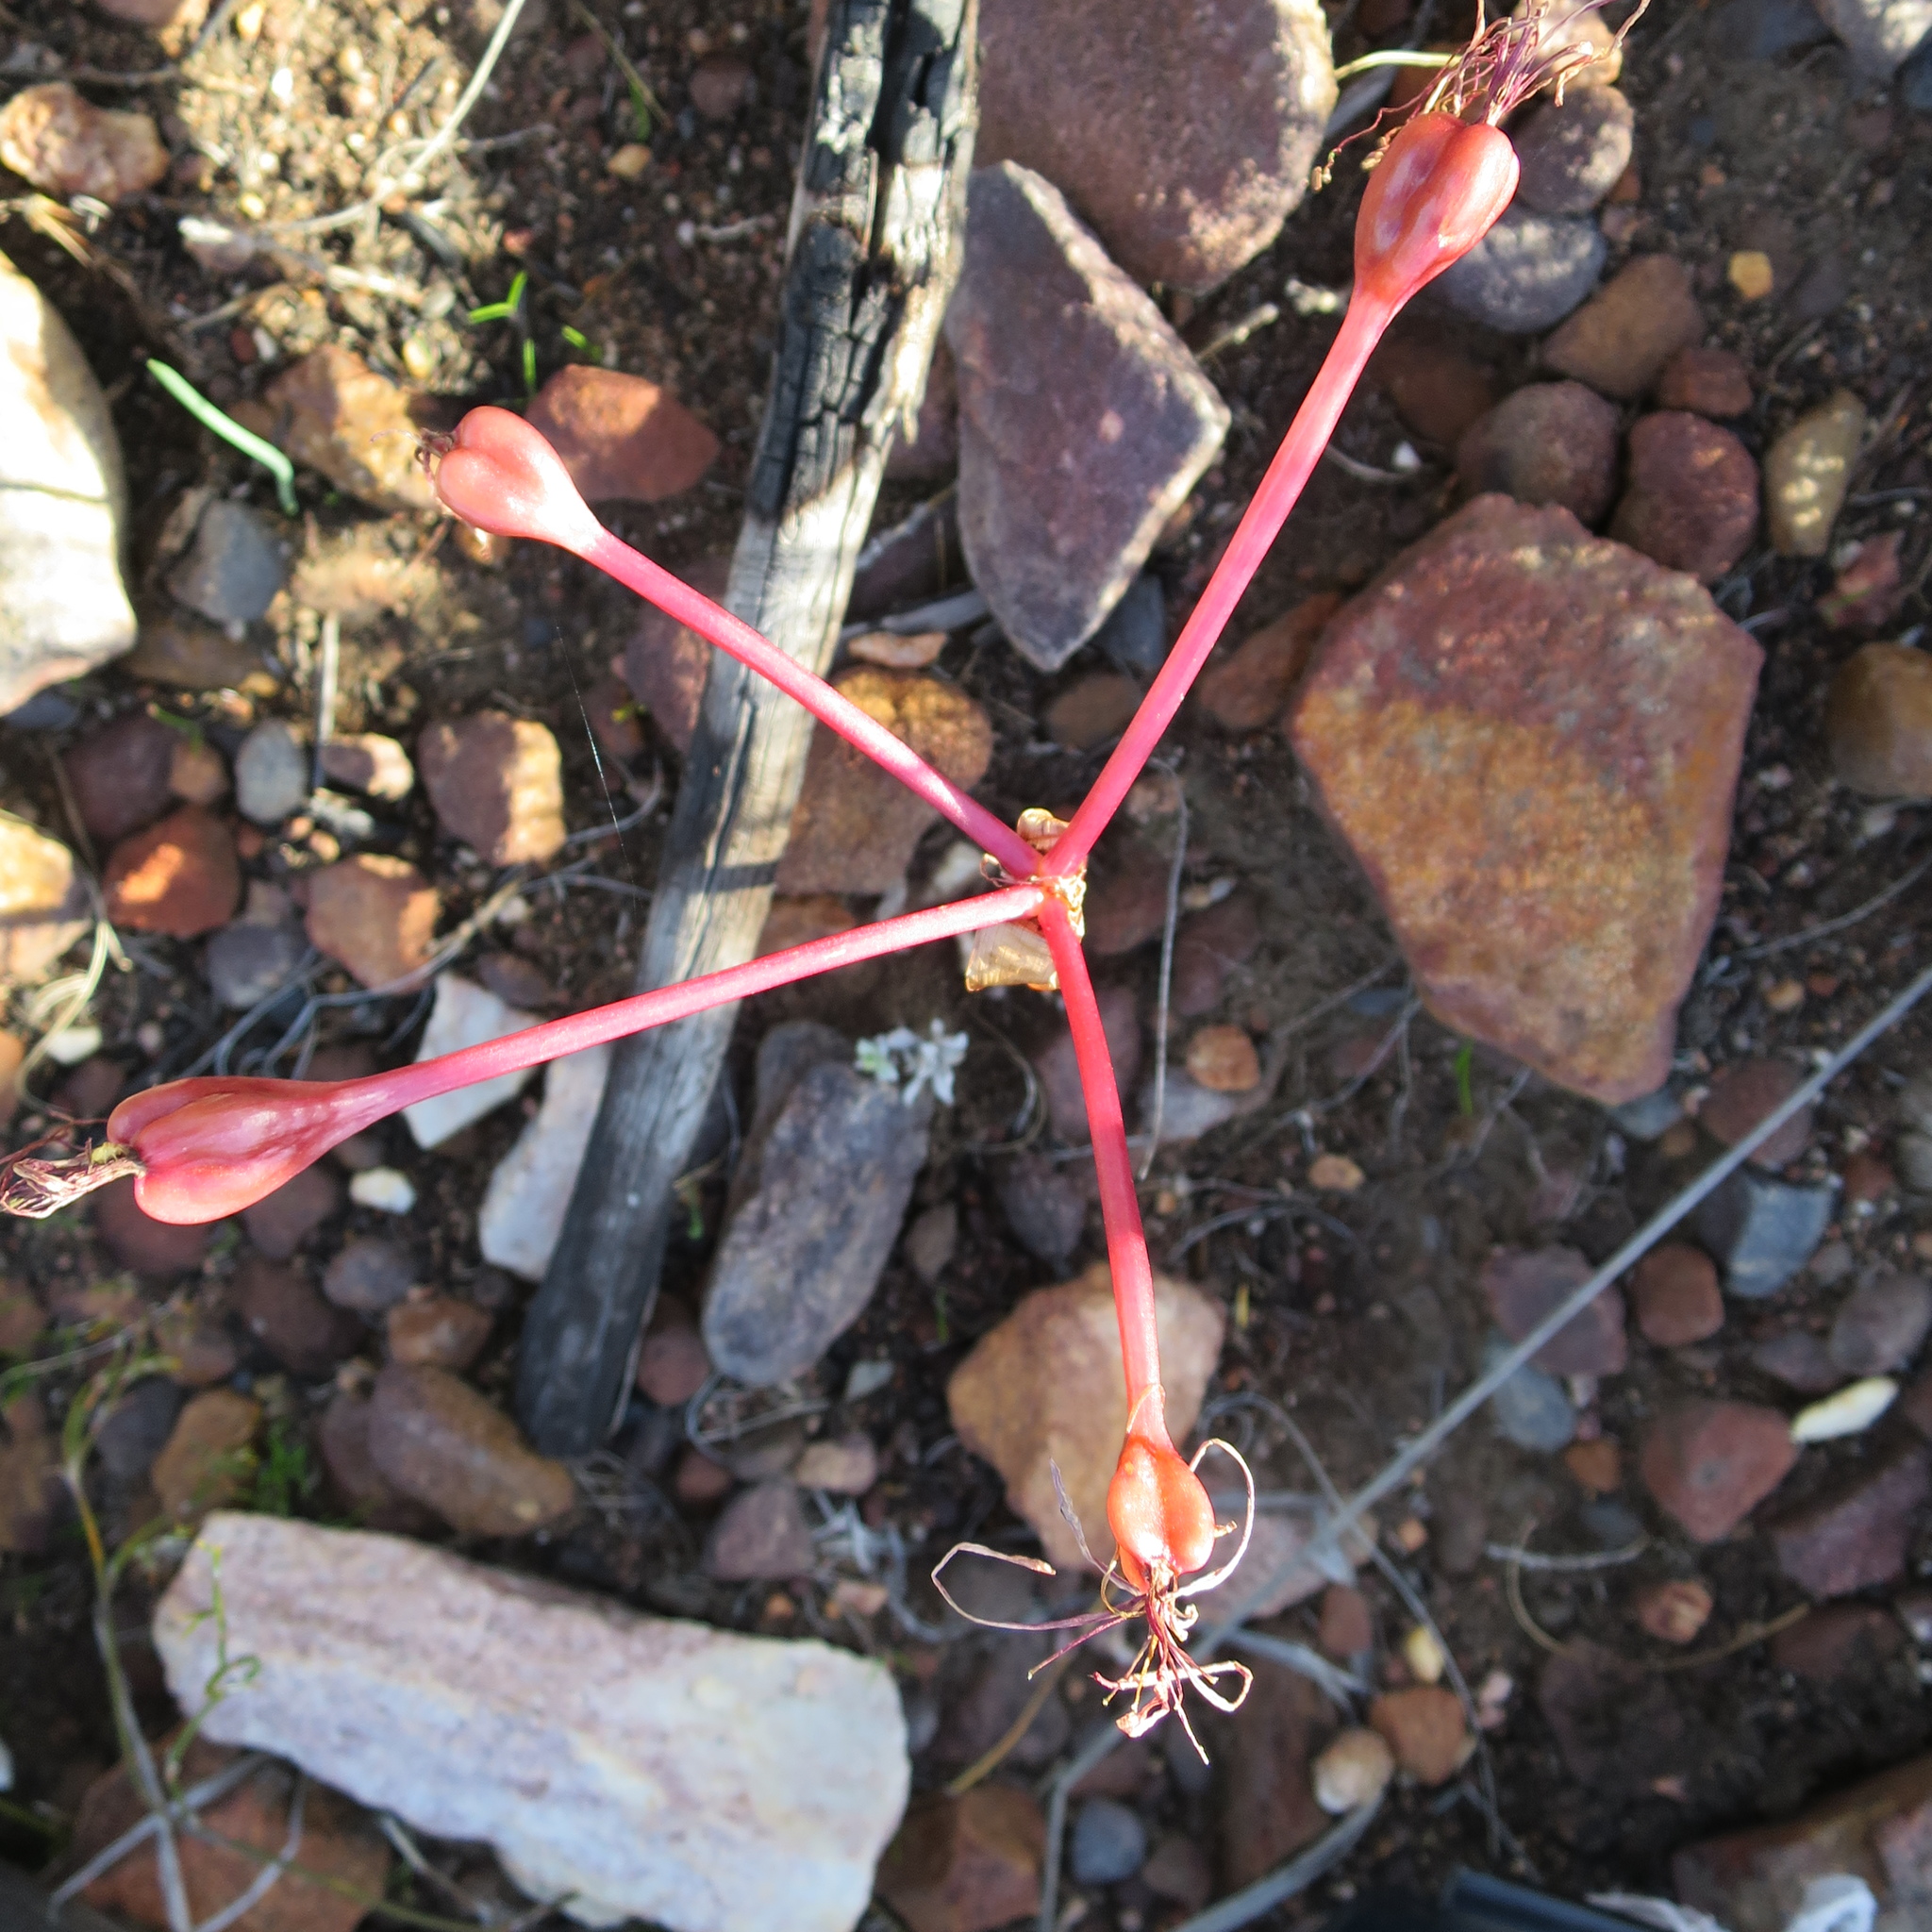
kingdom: Plantae
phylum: Tracheophyta
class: Liliopsida
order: Asparagales
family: Amaryllidaceae
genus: Brunsvigia
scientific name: Brunsvigia nervosa
